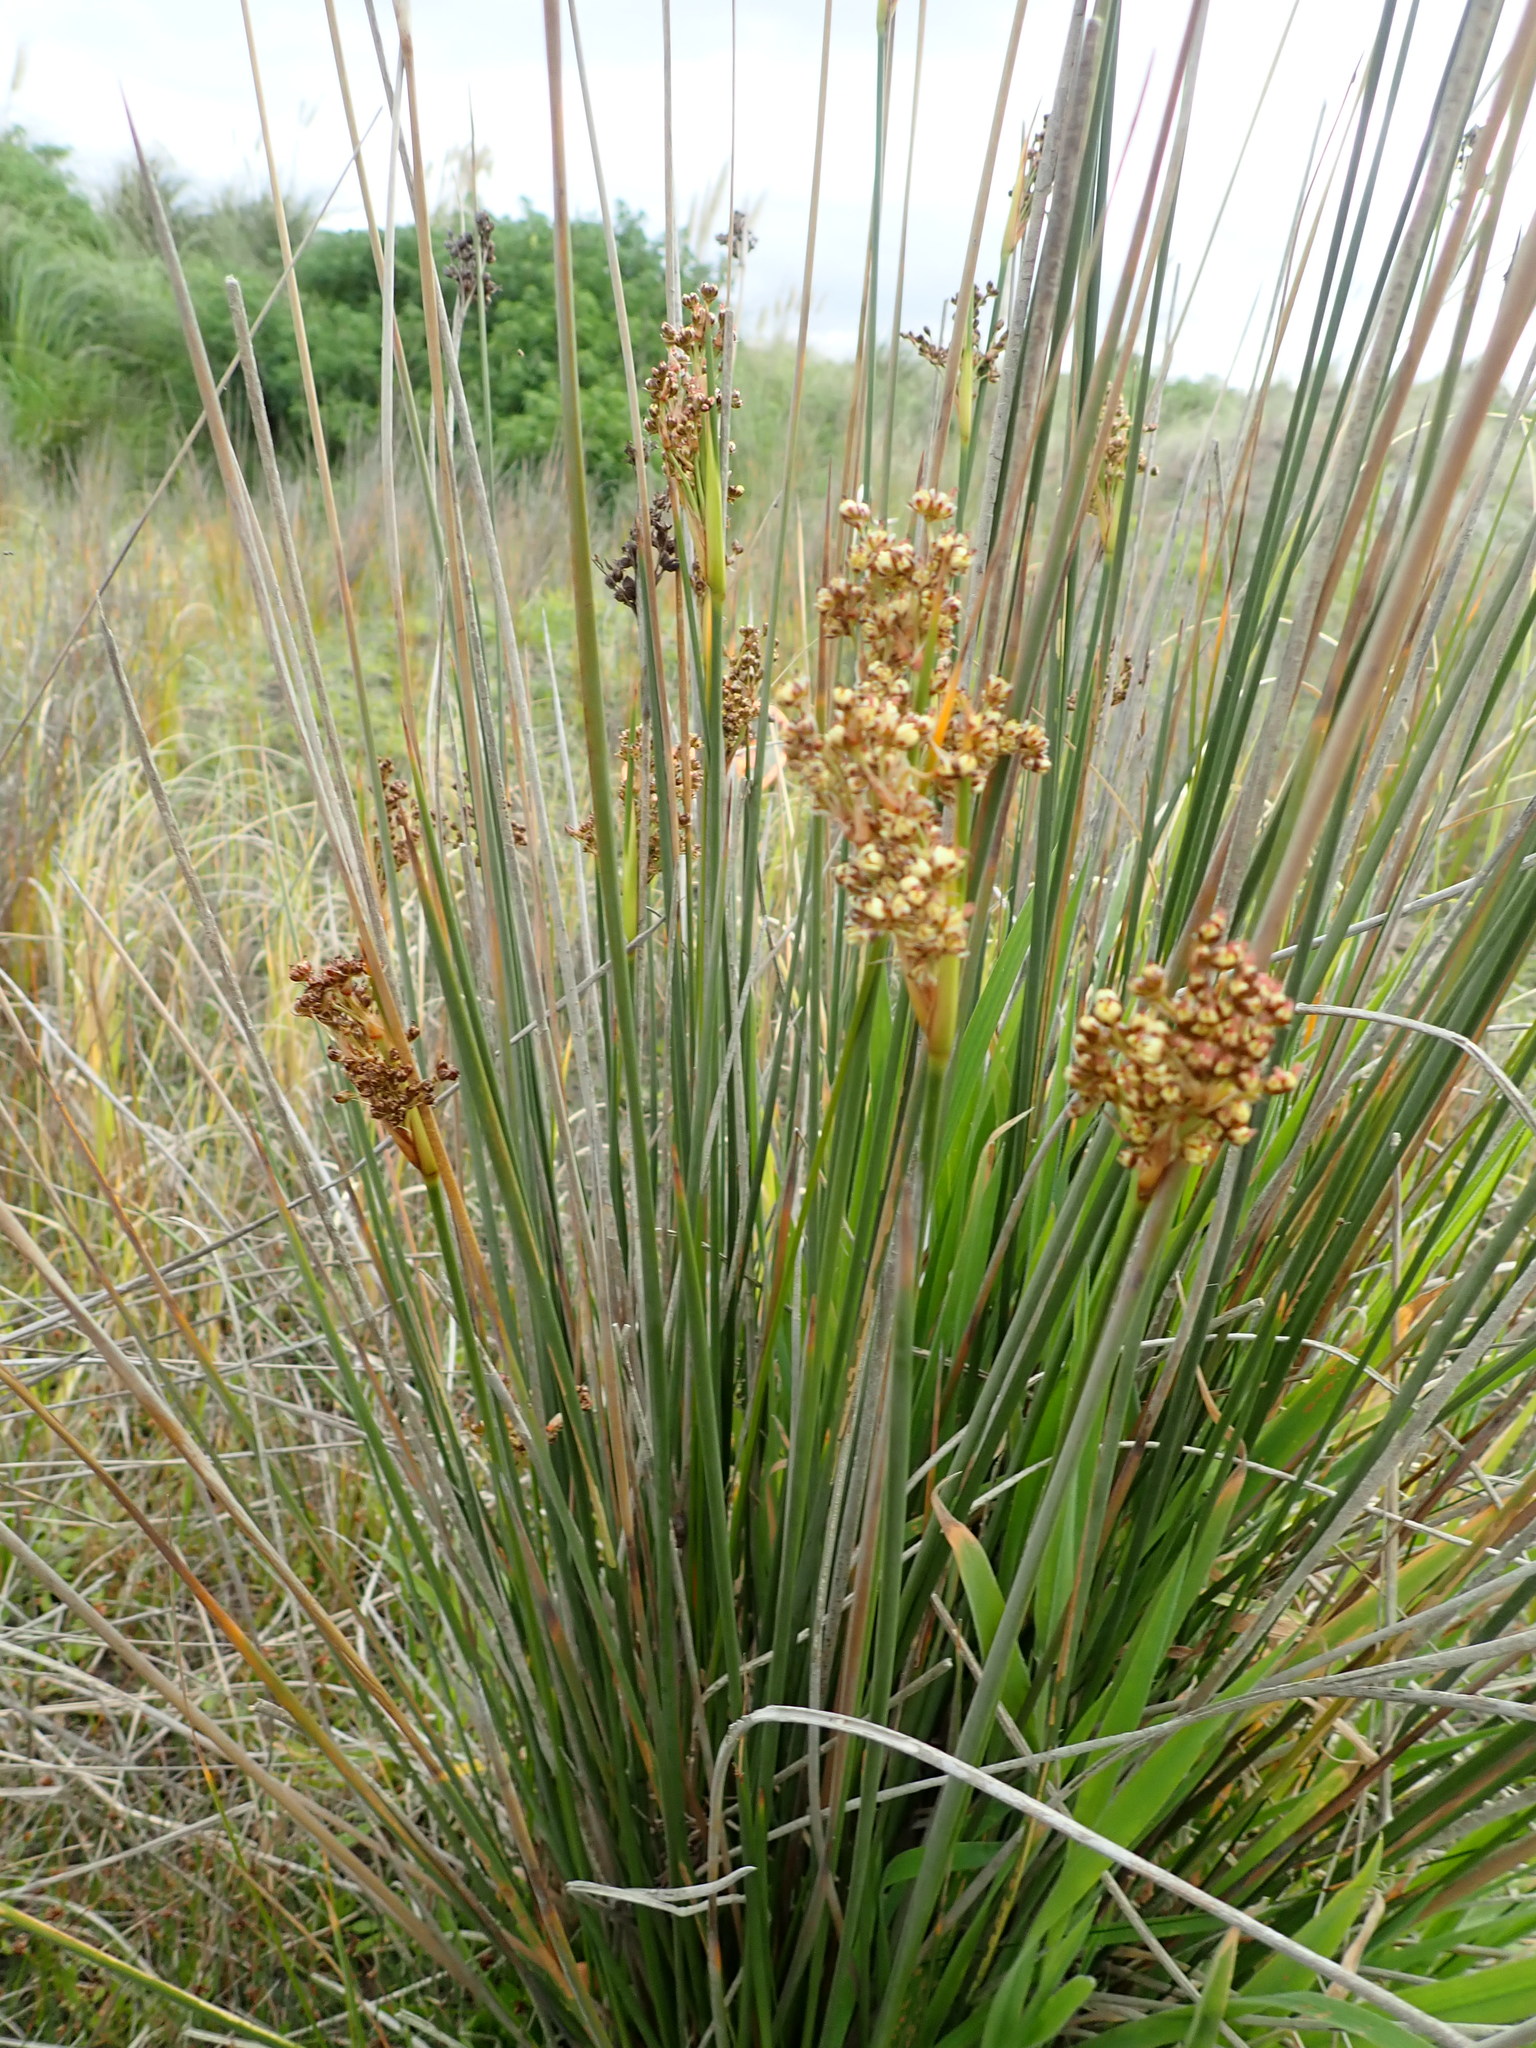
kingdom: Plantae
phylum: Tracheophyta
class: Liliopsida
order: Poales
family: Juncaceae
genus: Juncus
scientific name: Juncus acutus
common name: Sharp rush
